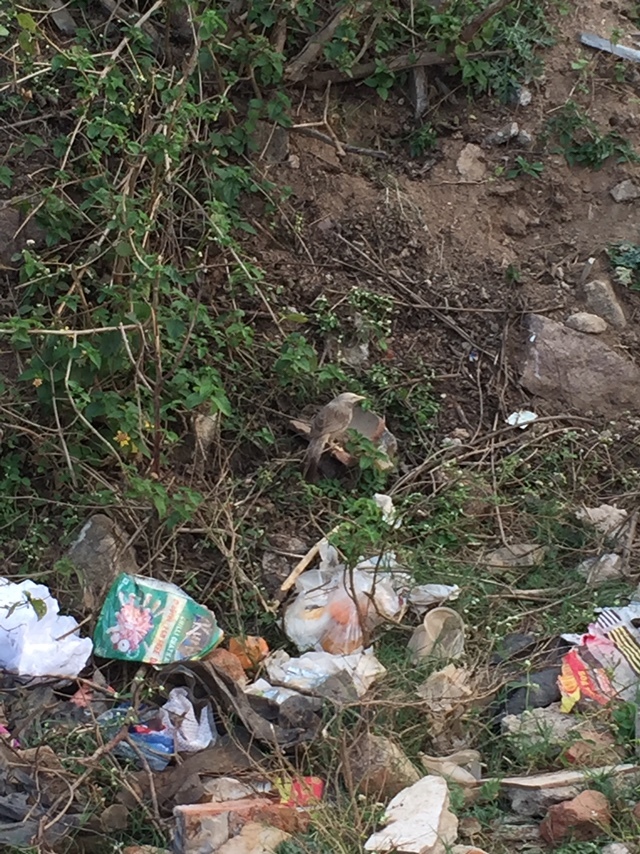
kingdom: Animalia
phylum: Chordata
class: Aves
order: Passeriformes
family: Leiothrichidae
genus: Turdoides
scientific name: Turdoides affinis
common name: Yellow-billed babbler
